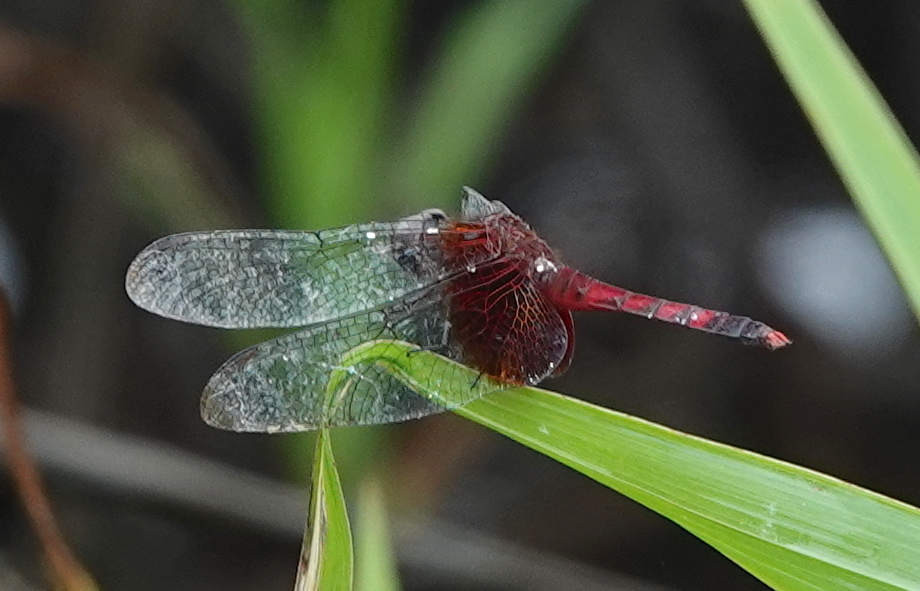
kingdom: Animalia
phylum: Arthropoda
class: Insecta
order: Odonata
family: Libellulidae
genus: Erythrodiplax
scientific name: Erythrodiplax fervida
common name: Red-mantled dragonlet
